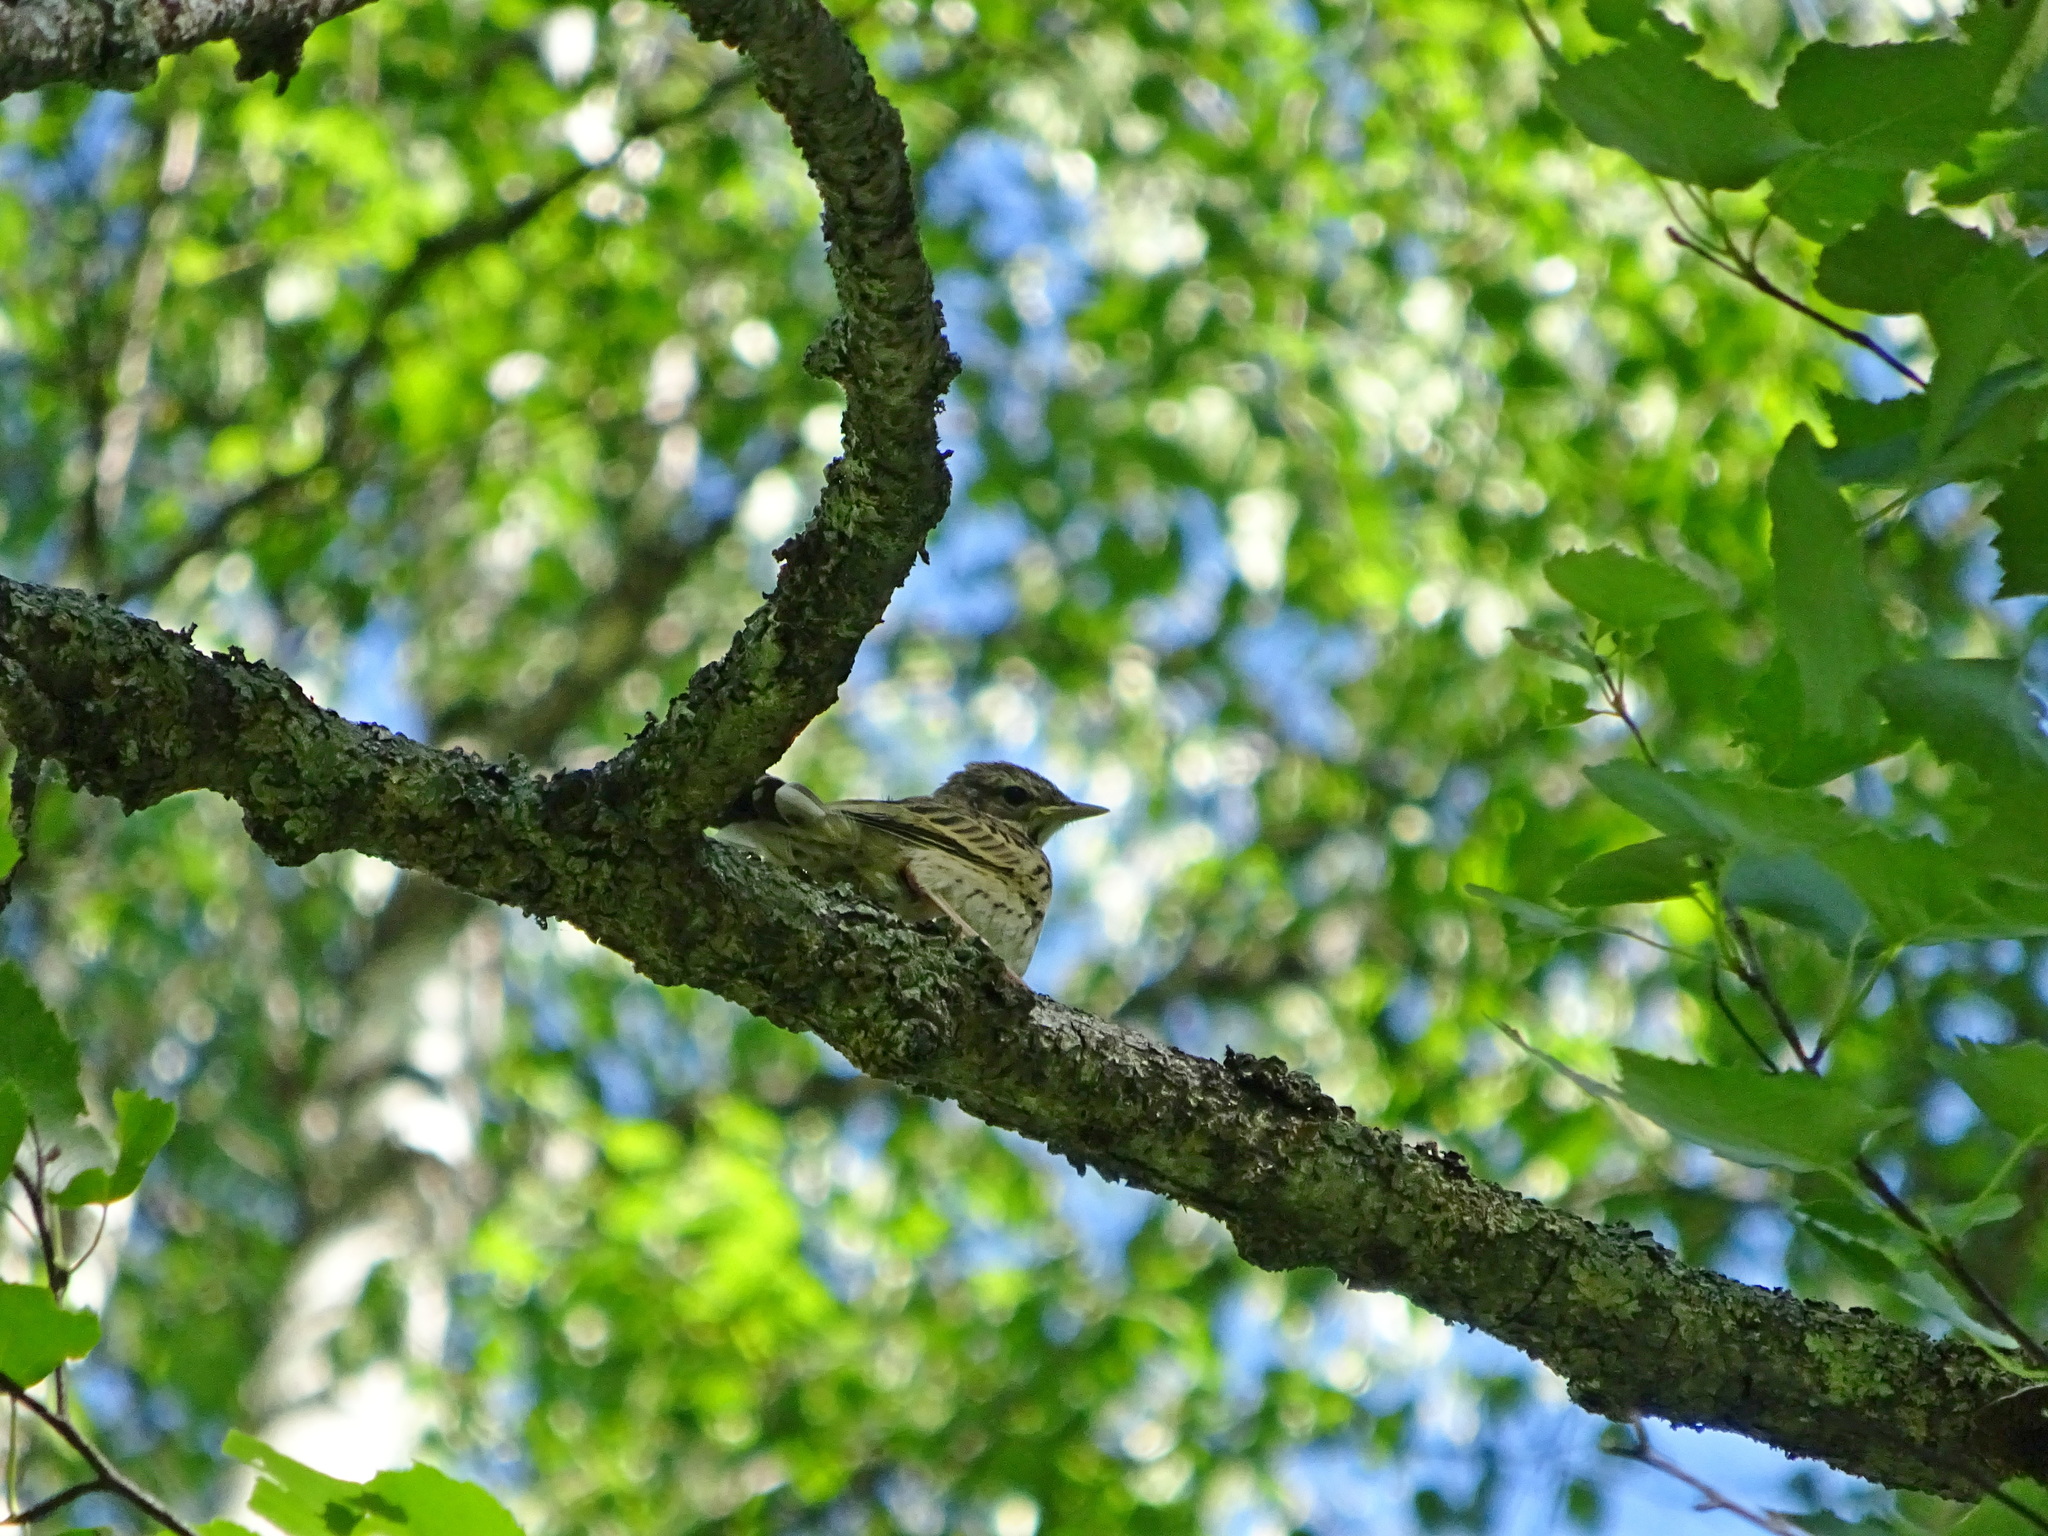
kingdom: Animalia
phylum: Chordata
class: Aves
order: Passeriformes
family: Motacillidae
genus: Anthus
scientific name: Anthus trivialis
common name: Tree pipit
